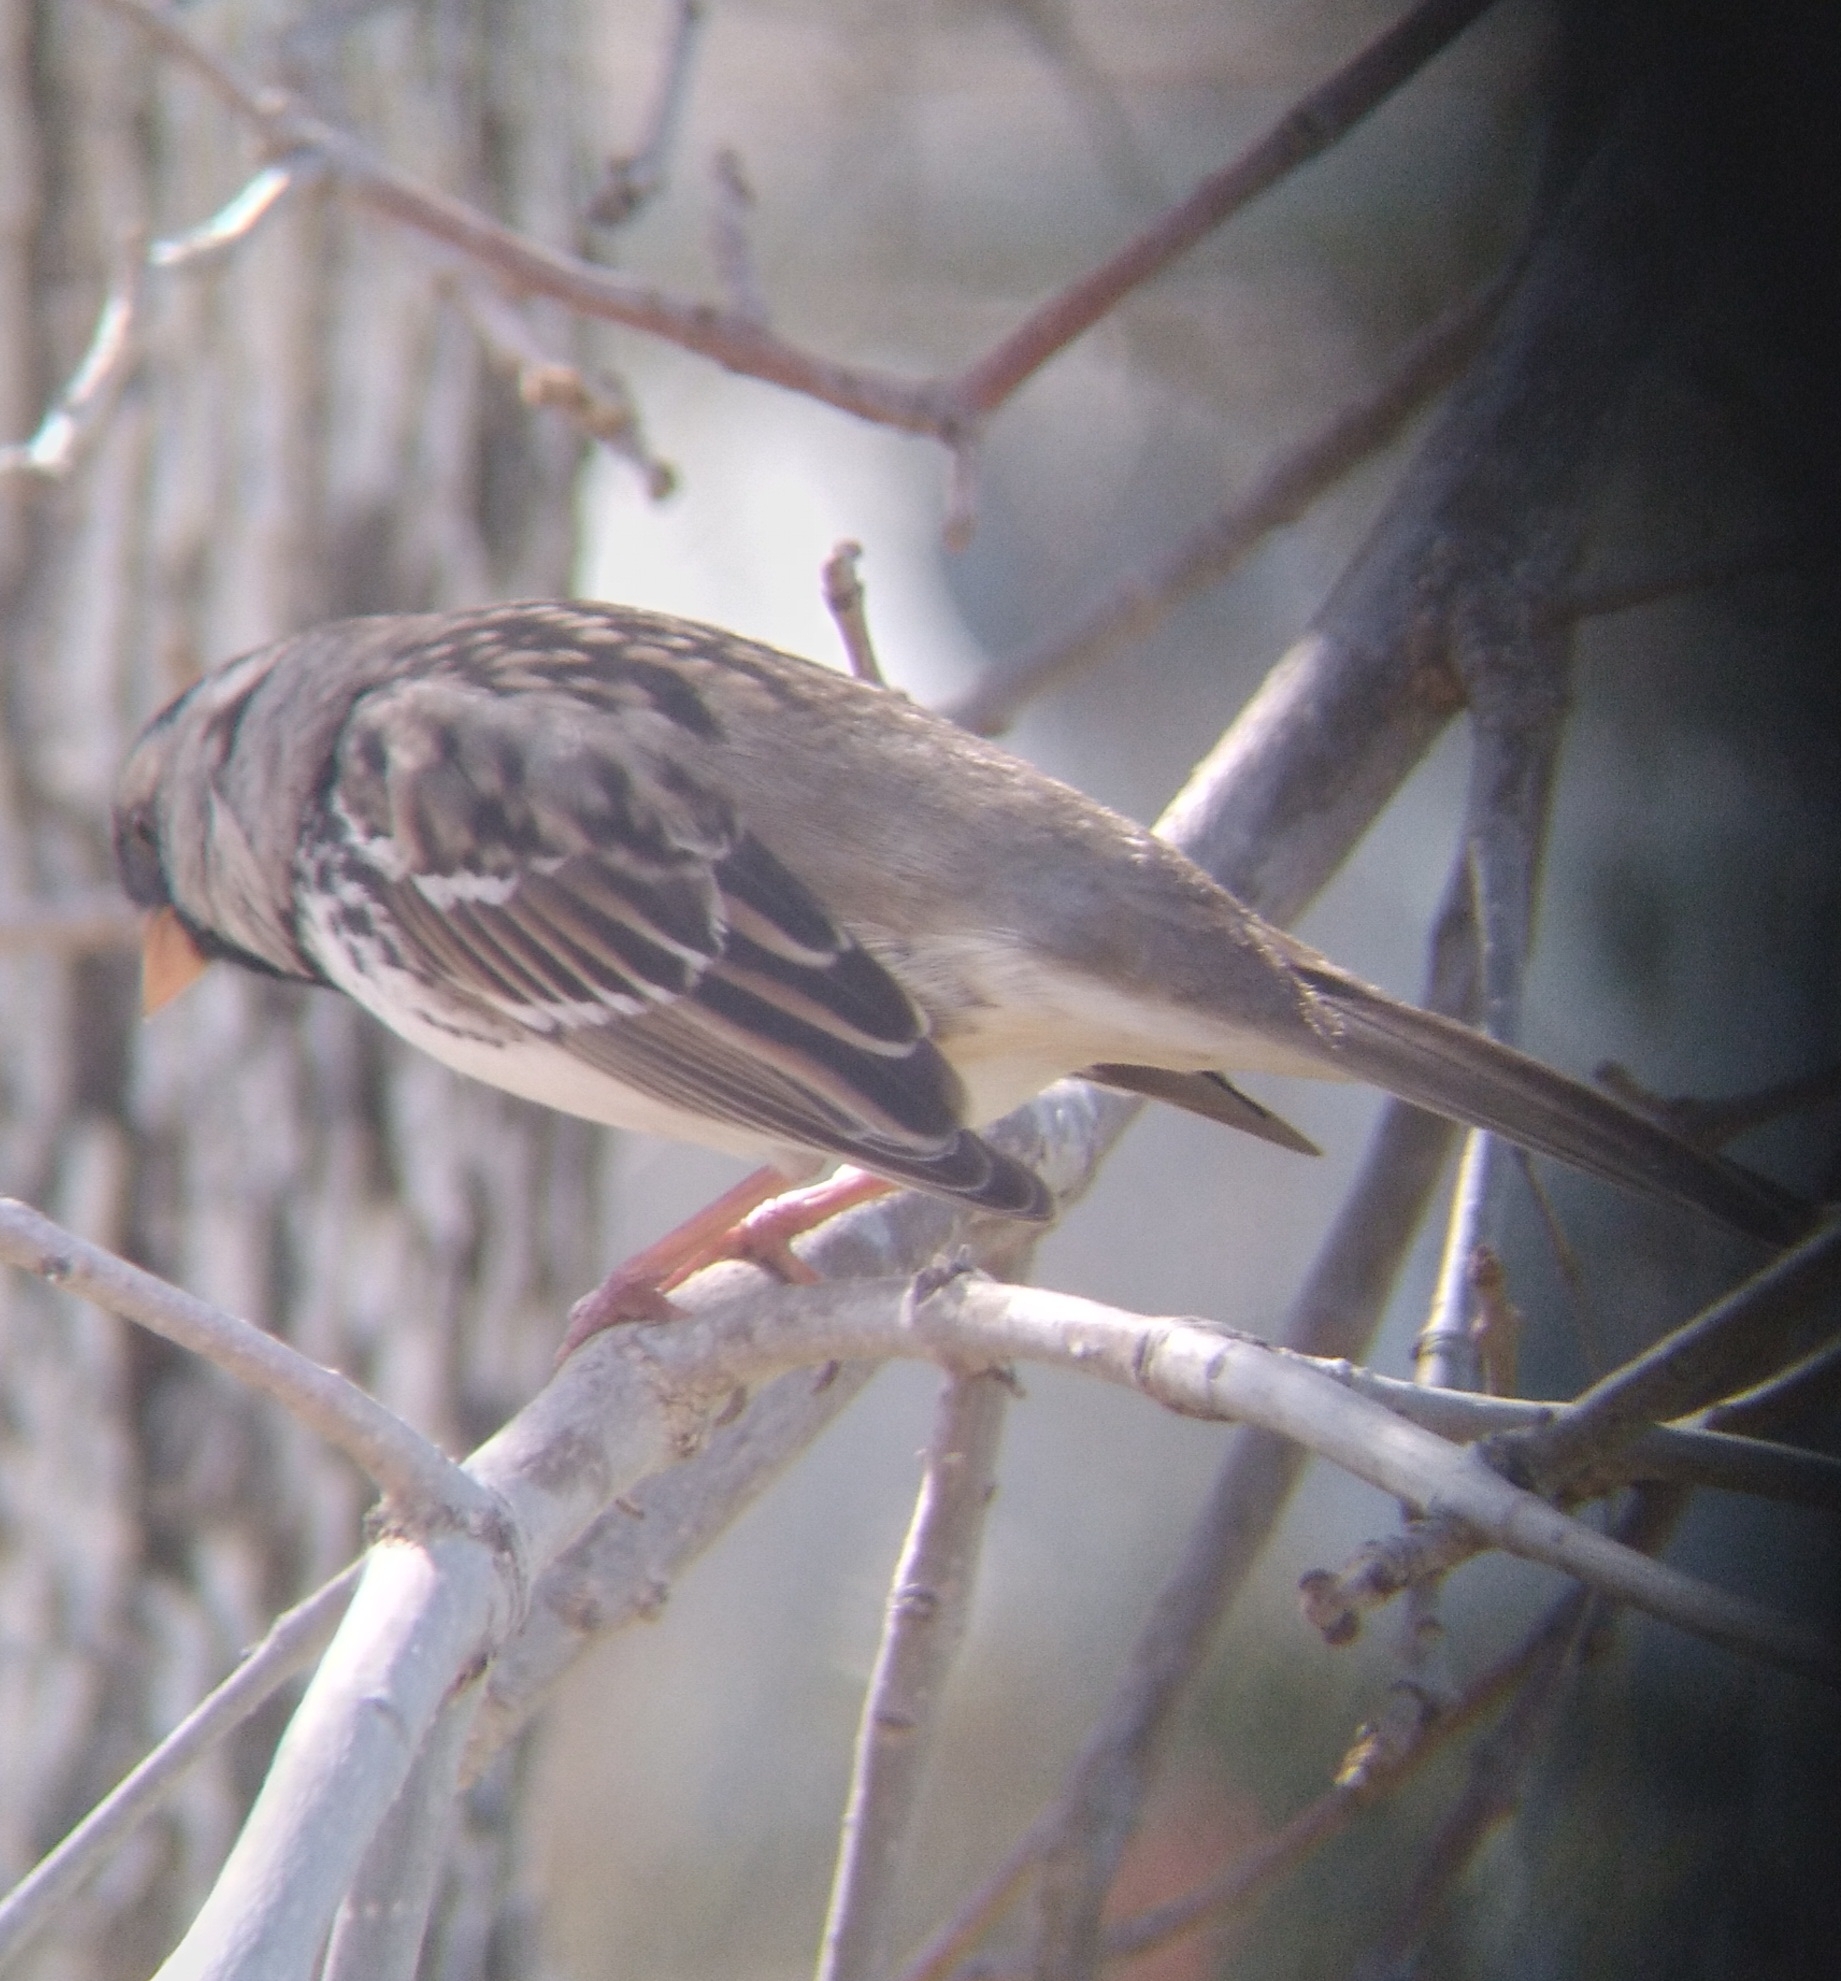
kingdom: Animalia
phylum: Chordata
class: Aves
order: Passeriformes
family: Passerellidae
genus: Zonotrichia
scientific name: Zonotrichia querula
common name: Harris's sparrow
